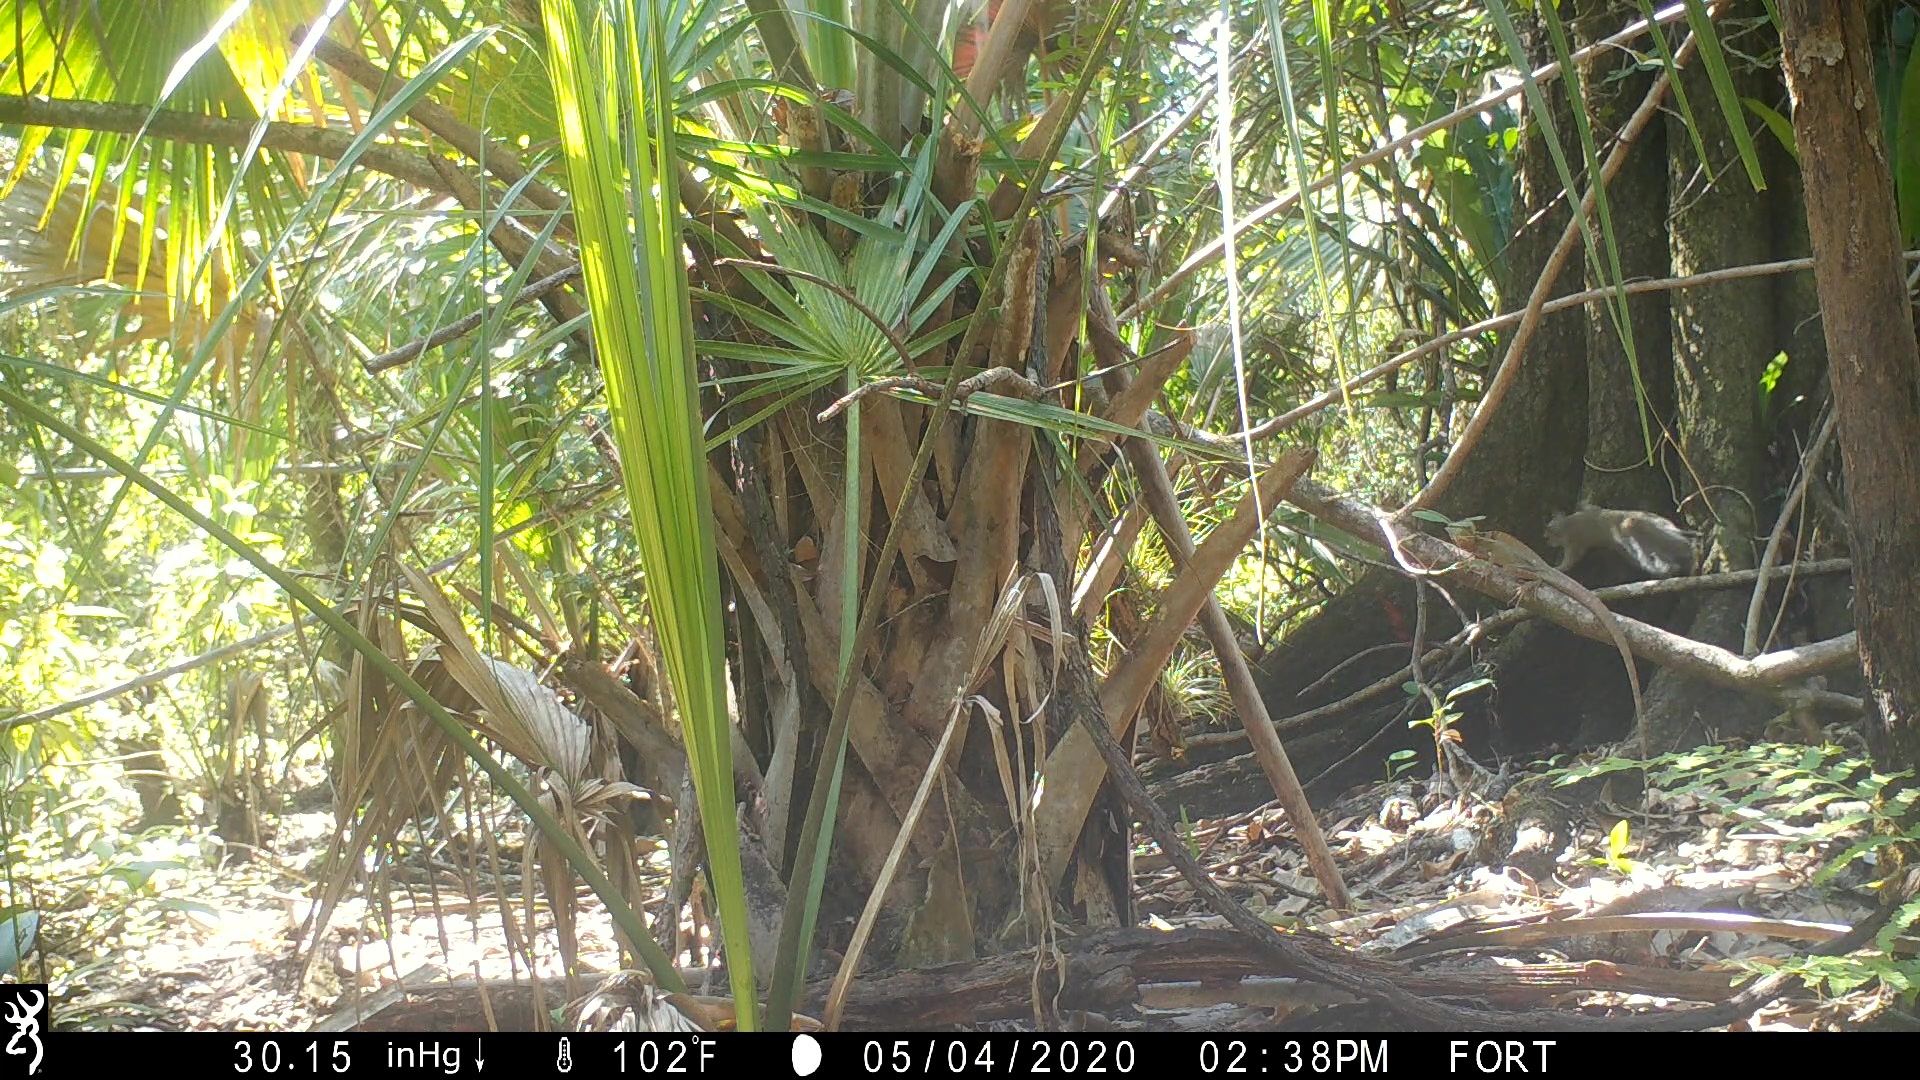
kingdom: Animalia
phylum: Chordata
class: Mammalia
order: Rodentia
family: Sciuridae
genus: Sciurus
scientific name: Sciurus carolinensis
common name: Eastern gray squirrel
